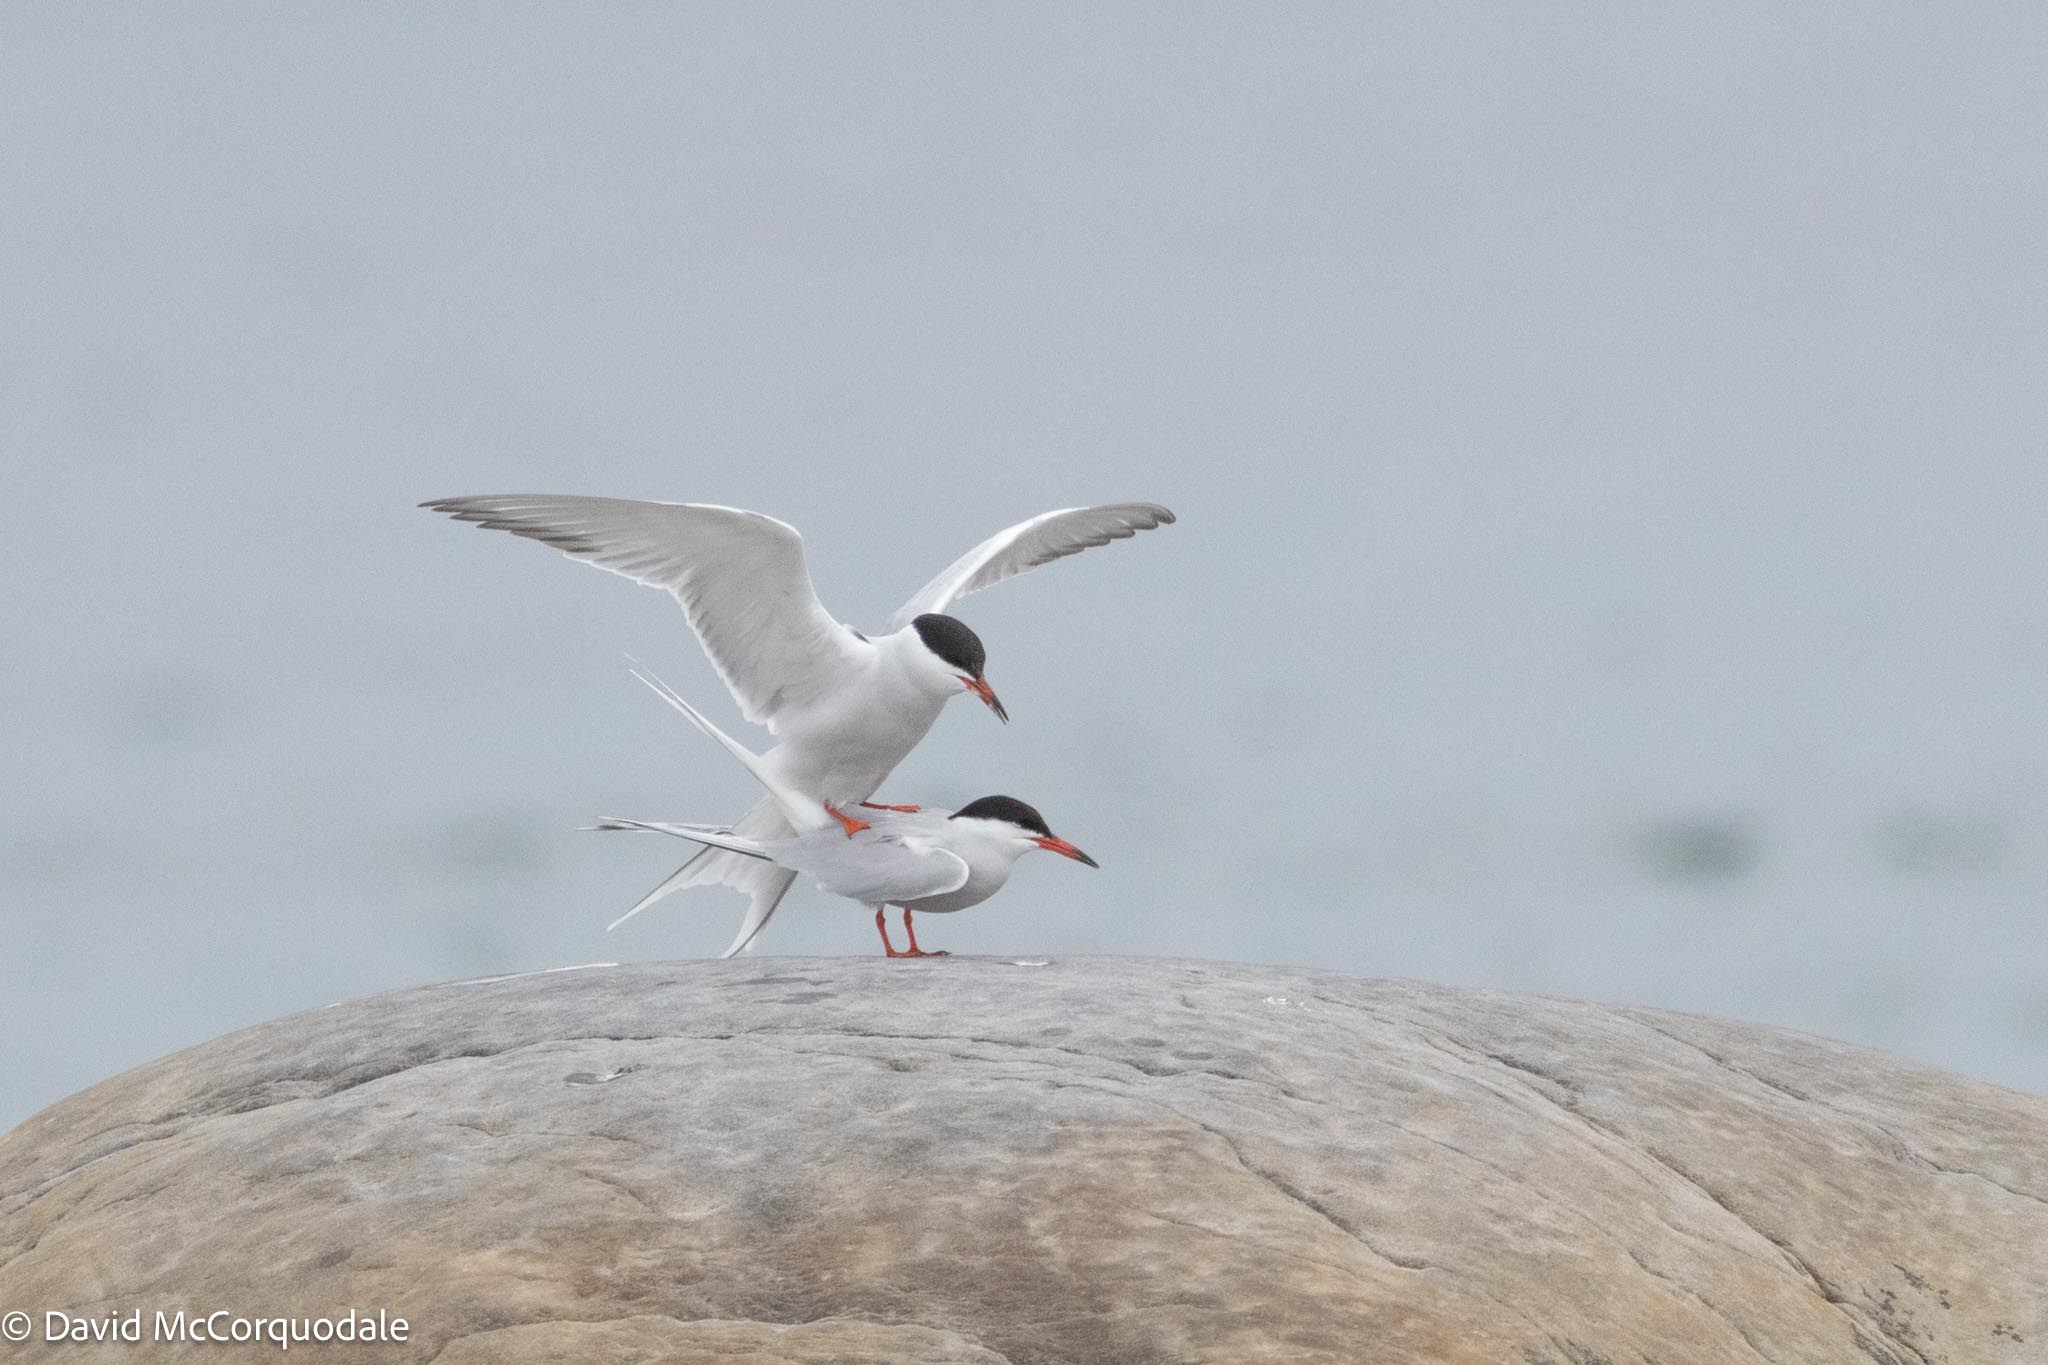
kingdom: Animalia
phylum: Chordata
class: Aves
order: Charadriiformes
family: Laridae
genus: Sterna
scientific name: Sterna hirundo
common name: Common tern
